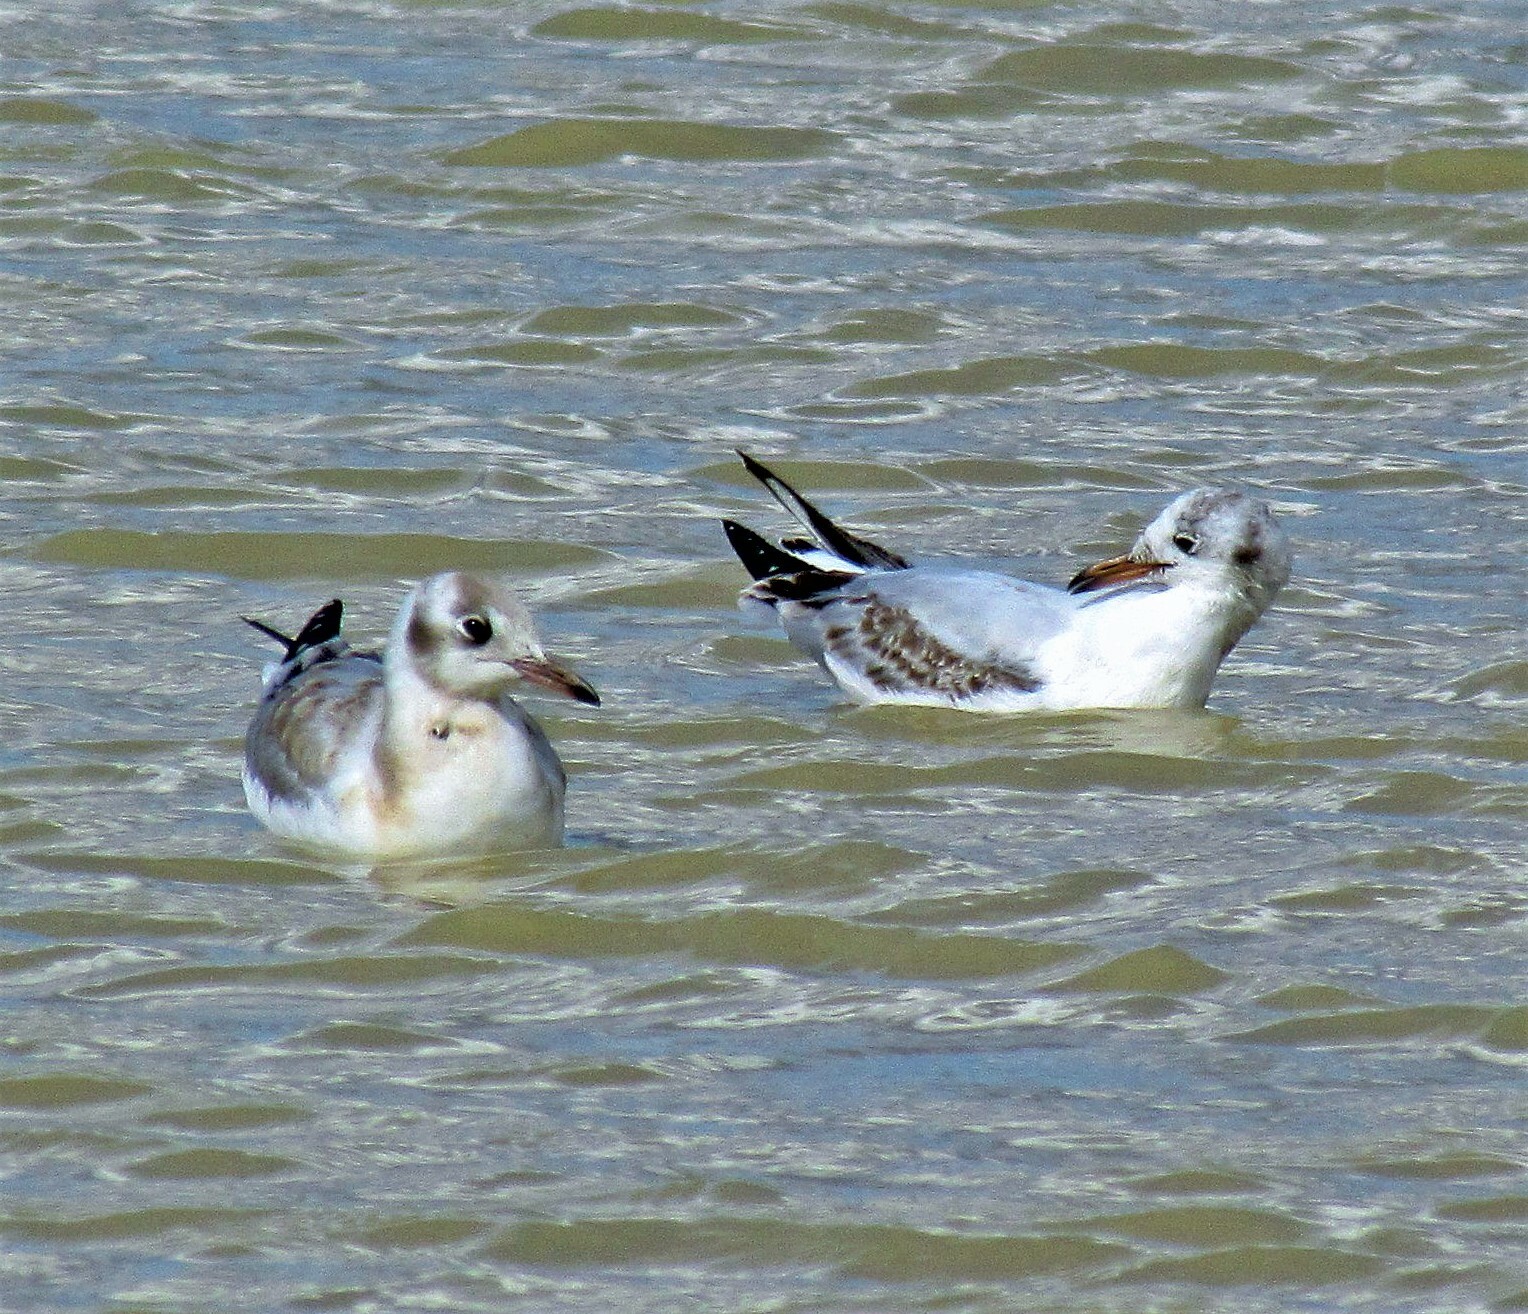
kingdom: Animalia
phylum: Chordata
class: Aves
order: Charadriiformes
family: Laridae
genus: Chroicocephalus
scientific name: Chroicocephalus maculipennis
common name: Brown-hooded gull
